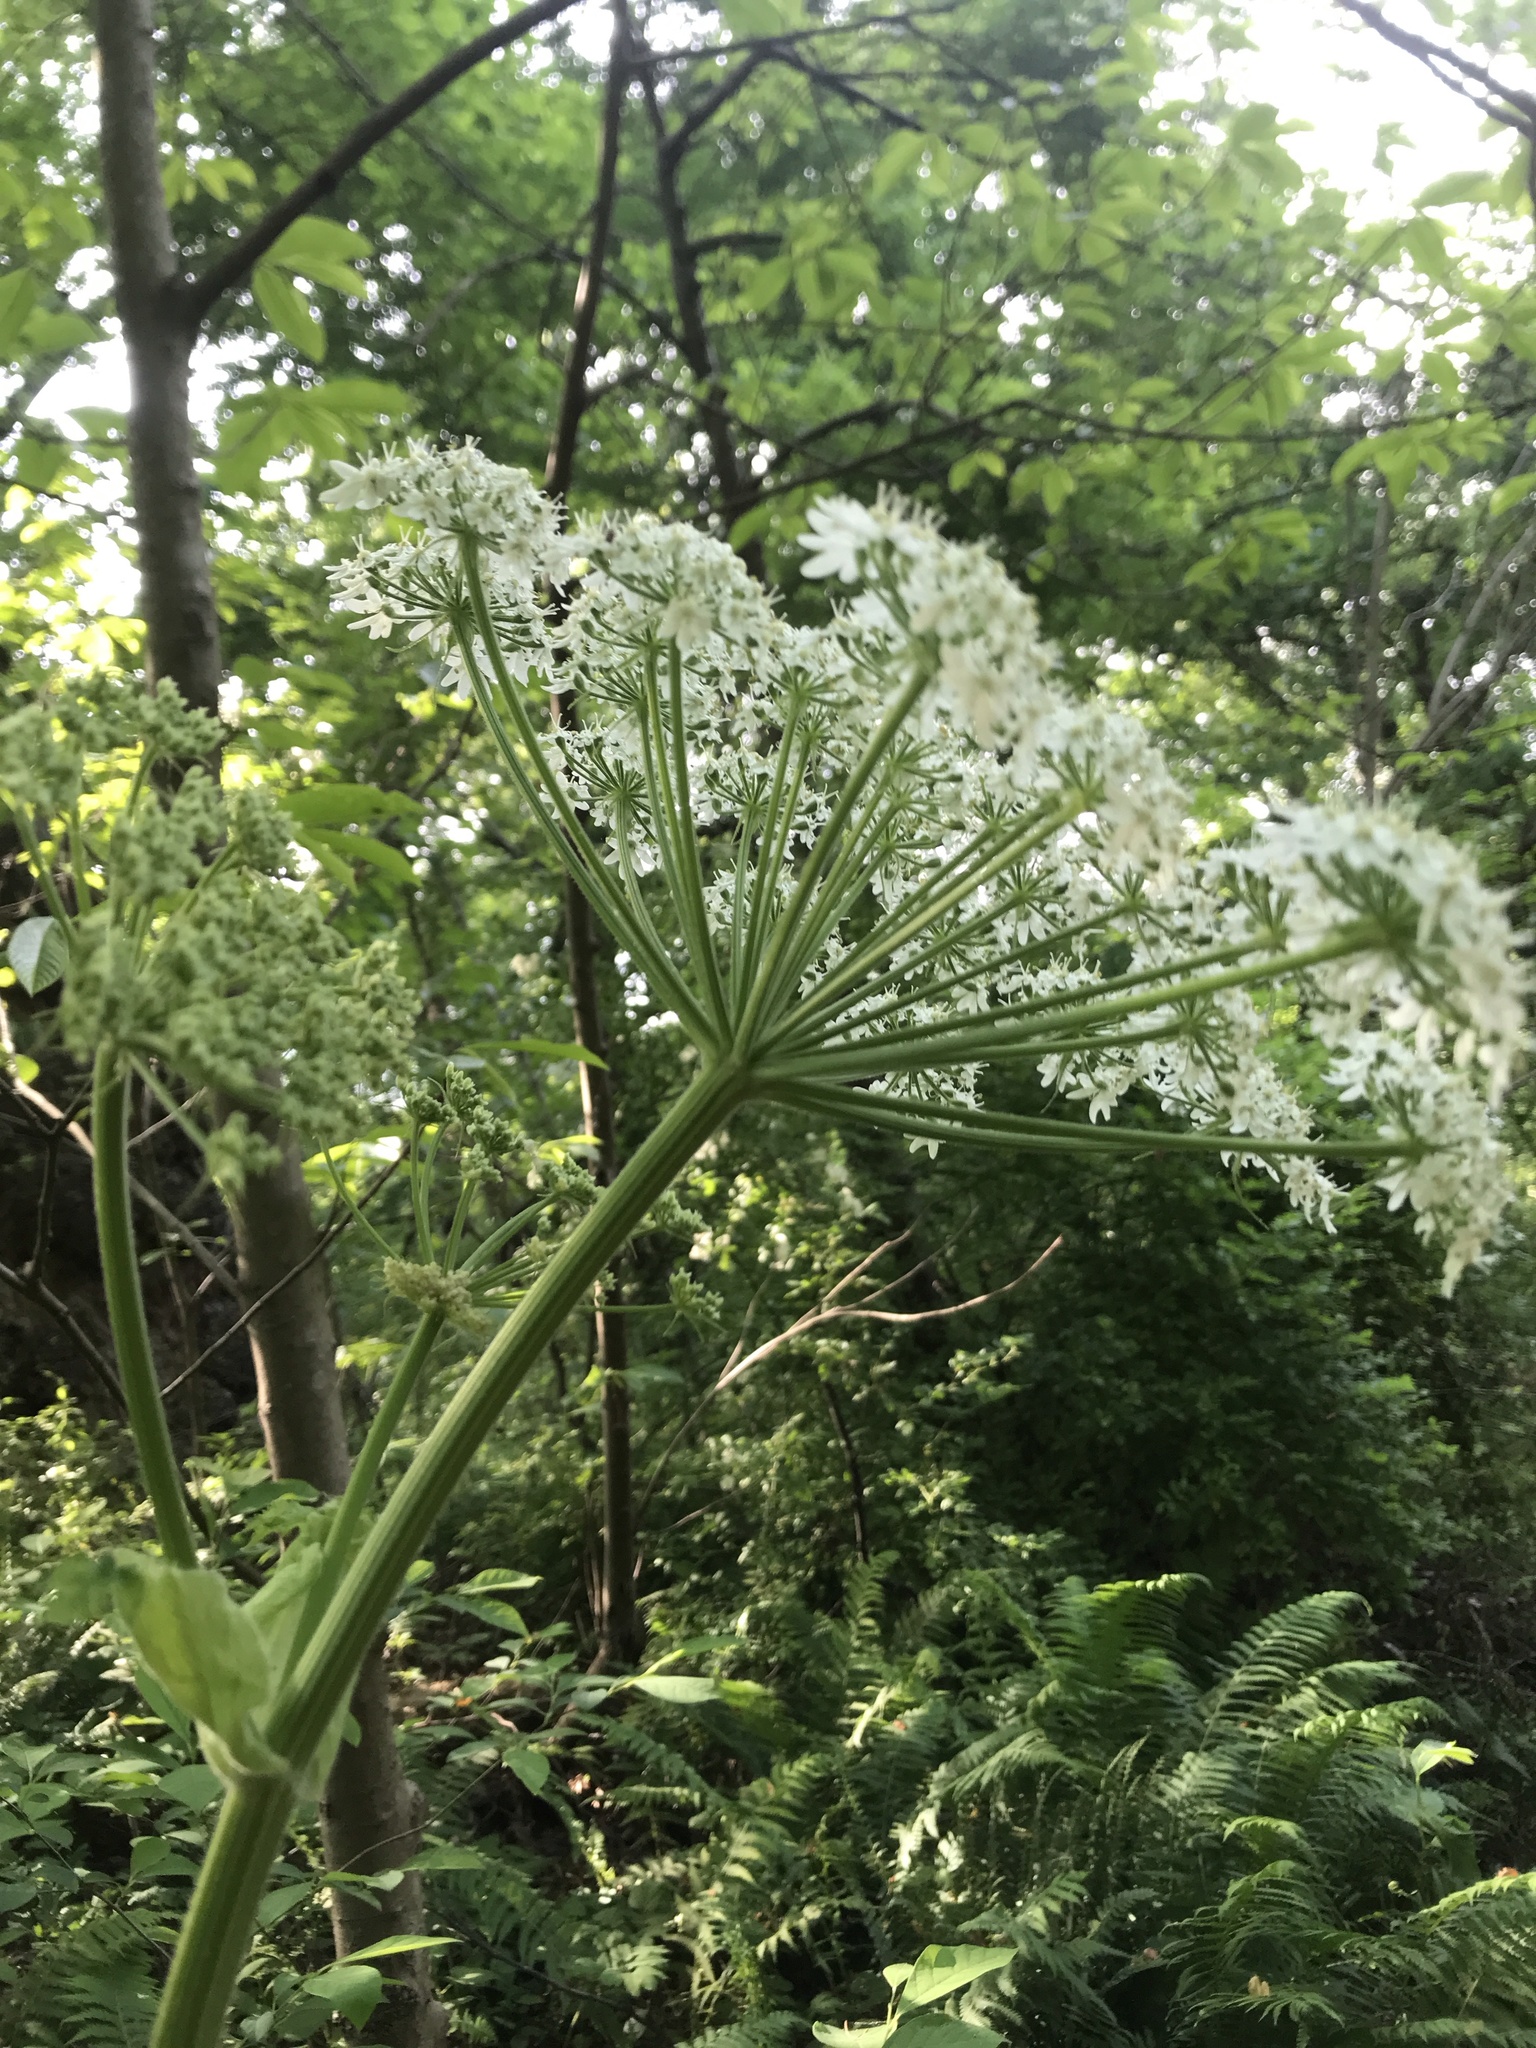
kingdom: Plantae
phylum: Tracheophyta
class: Magnoliopsida
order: Apiales
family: Apiaceae
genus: Heracleum
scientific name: Heracleum maximum
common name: American cow parsnip
